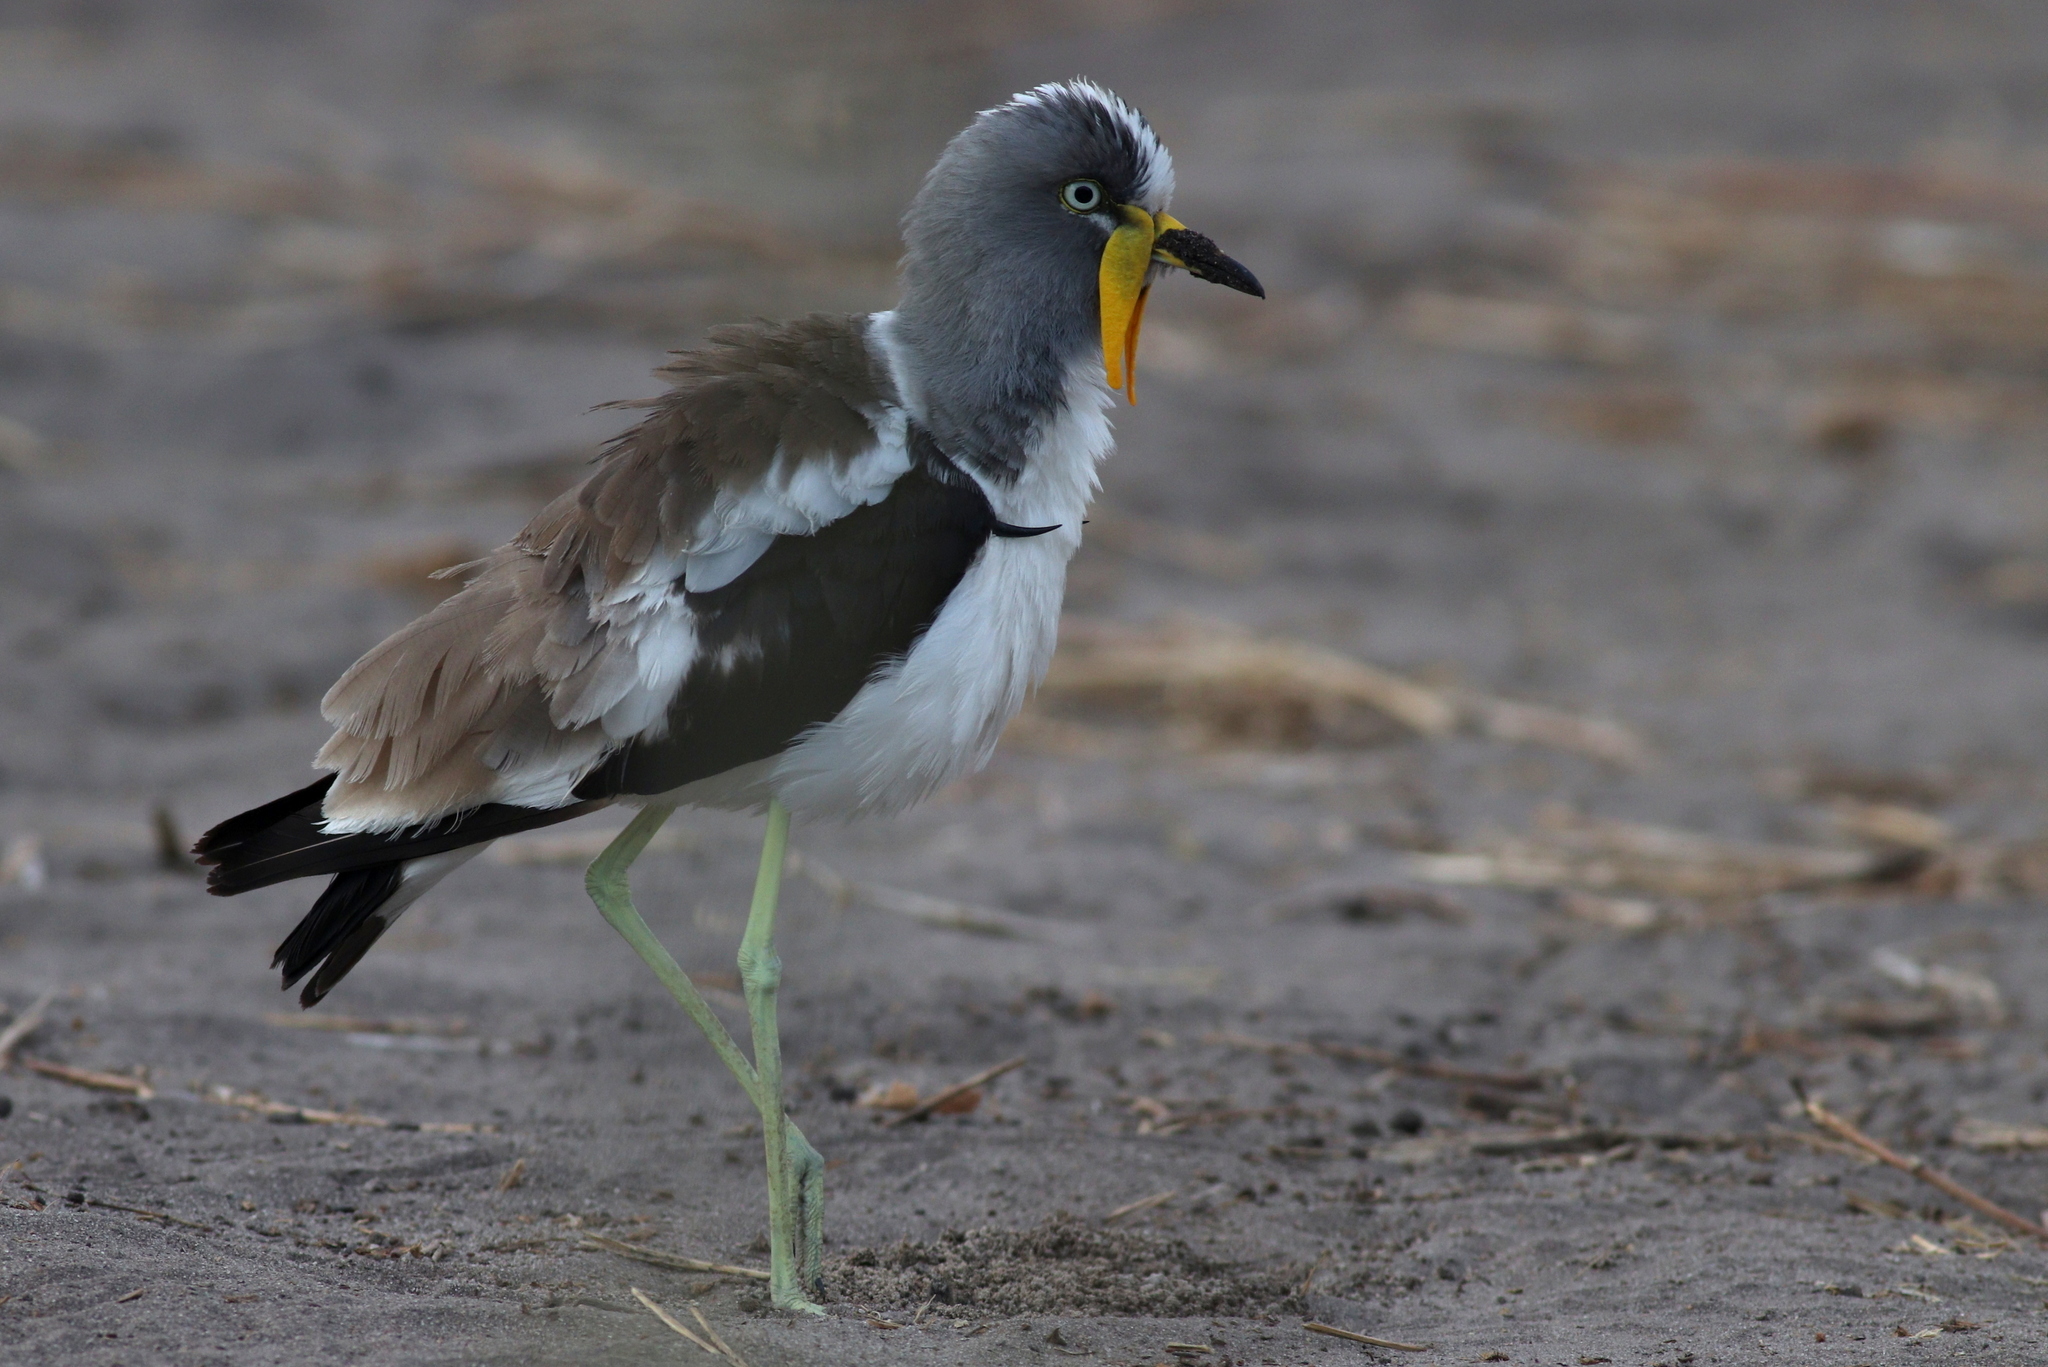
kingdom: Animalia
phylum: Chordata
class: Aves
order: Charadriiformes
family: Charadriidae
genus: Vanellus
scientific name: Vanellus albiceps
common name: White-crowned lapwing
